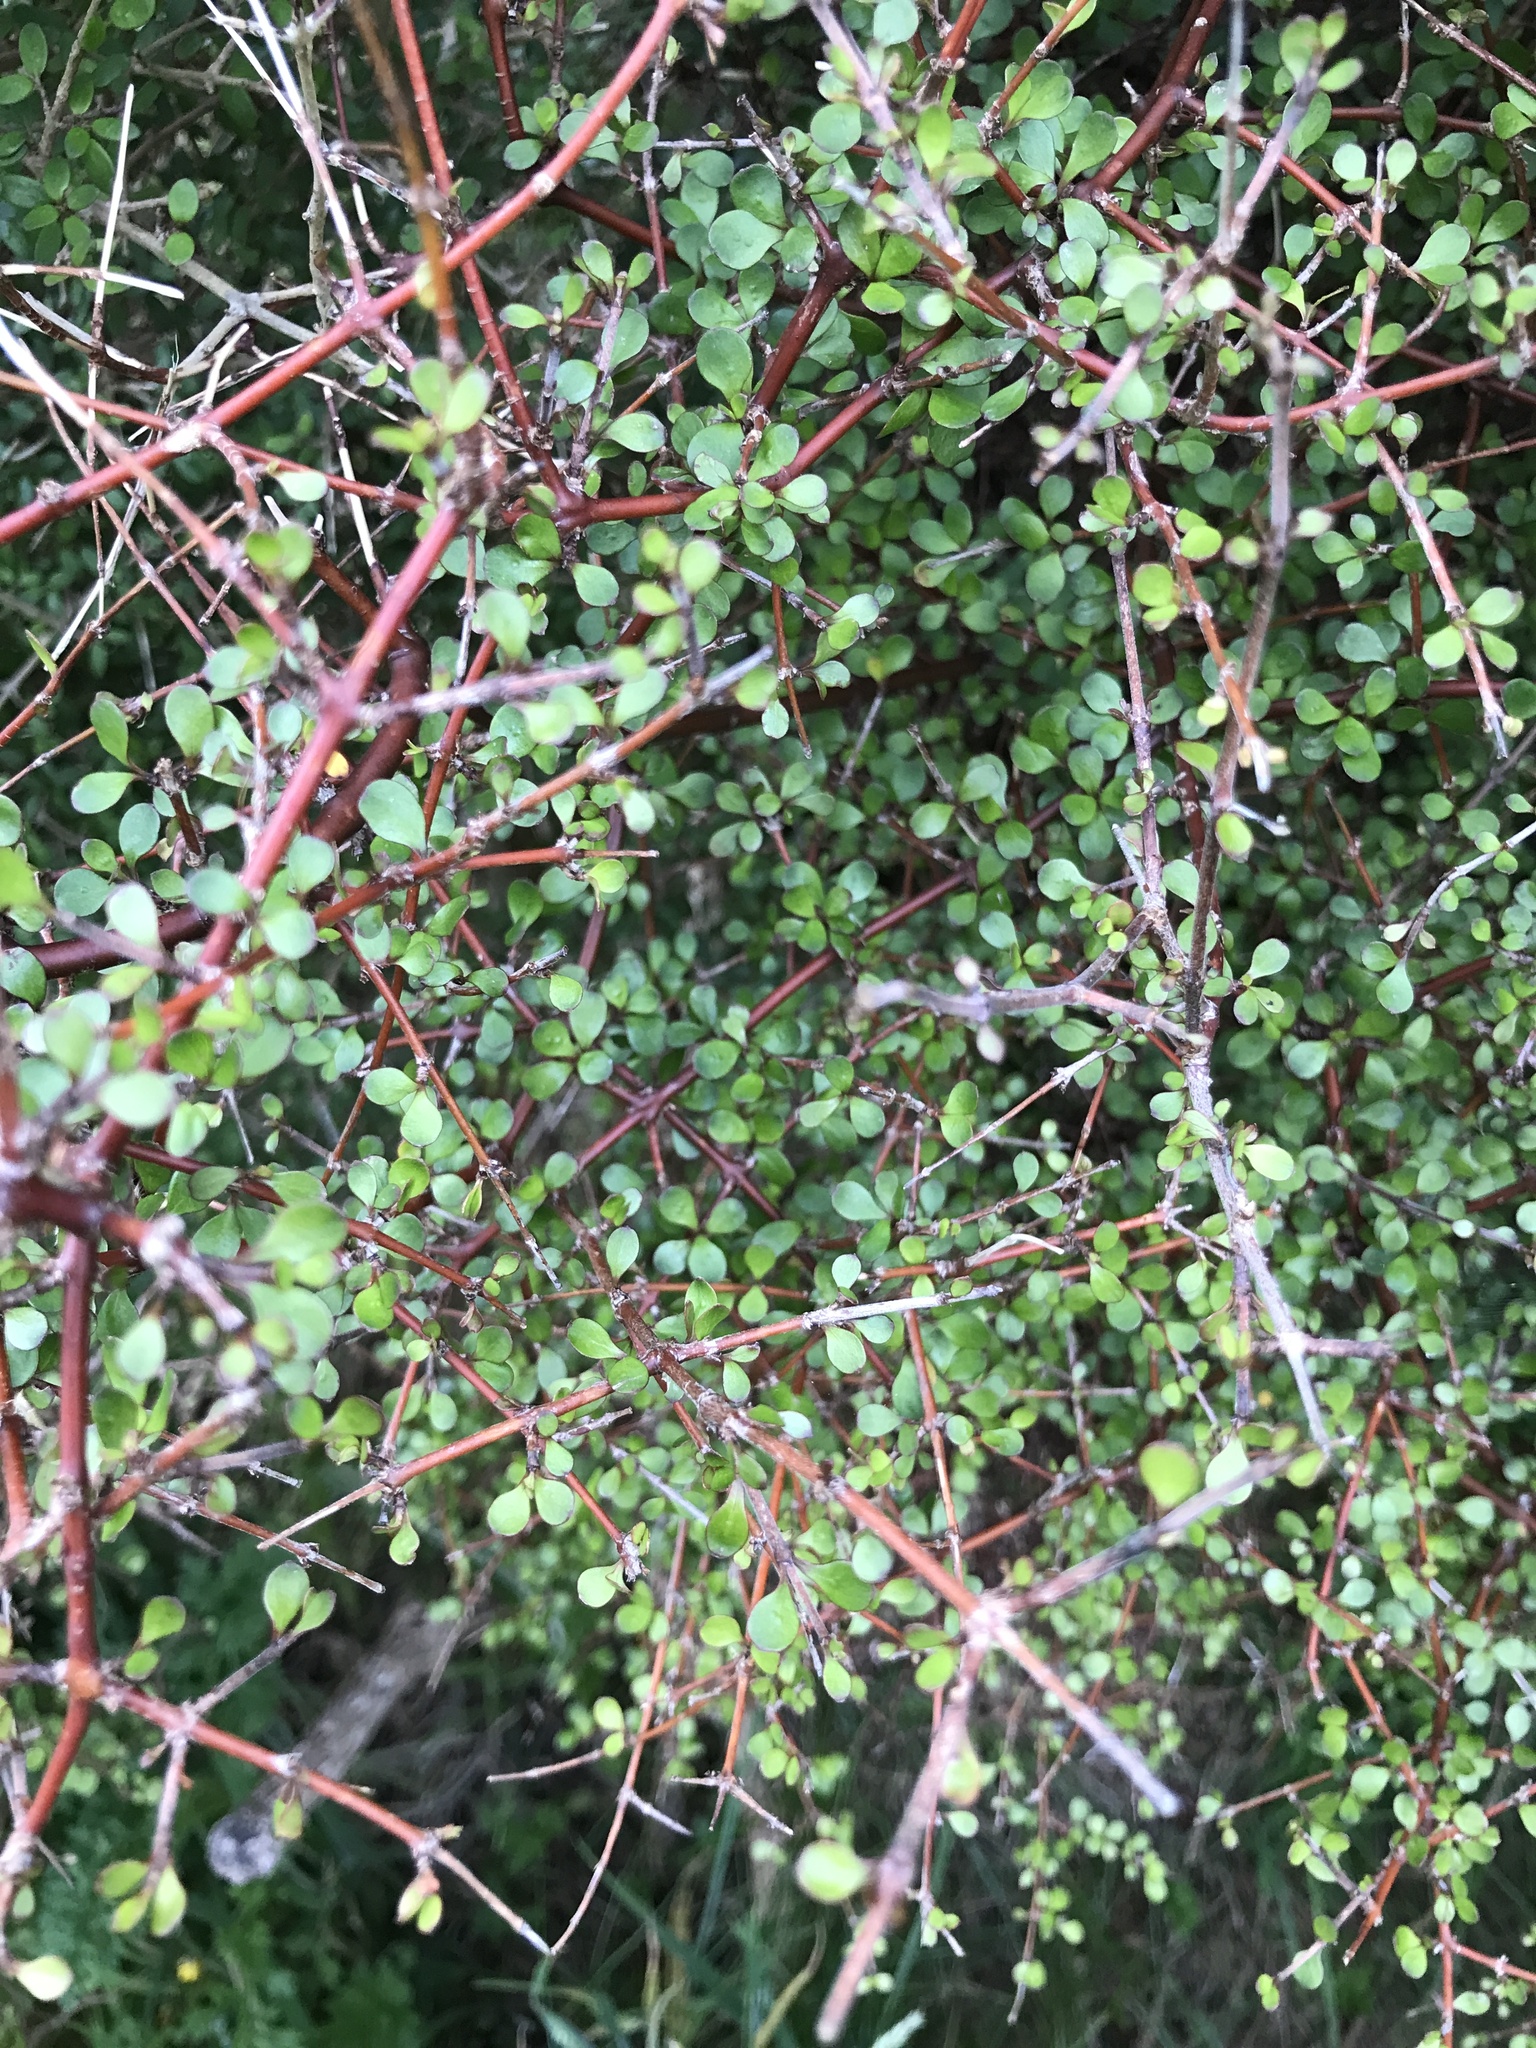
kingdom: Plantae
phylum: Tracheophyta
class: Magnoliopsida
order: Gentianales
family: Rubiaceae
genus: Coprosma
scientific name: Coprosma crassifolia
